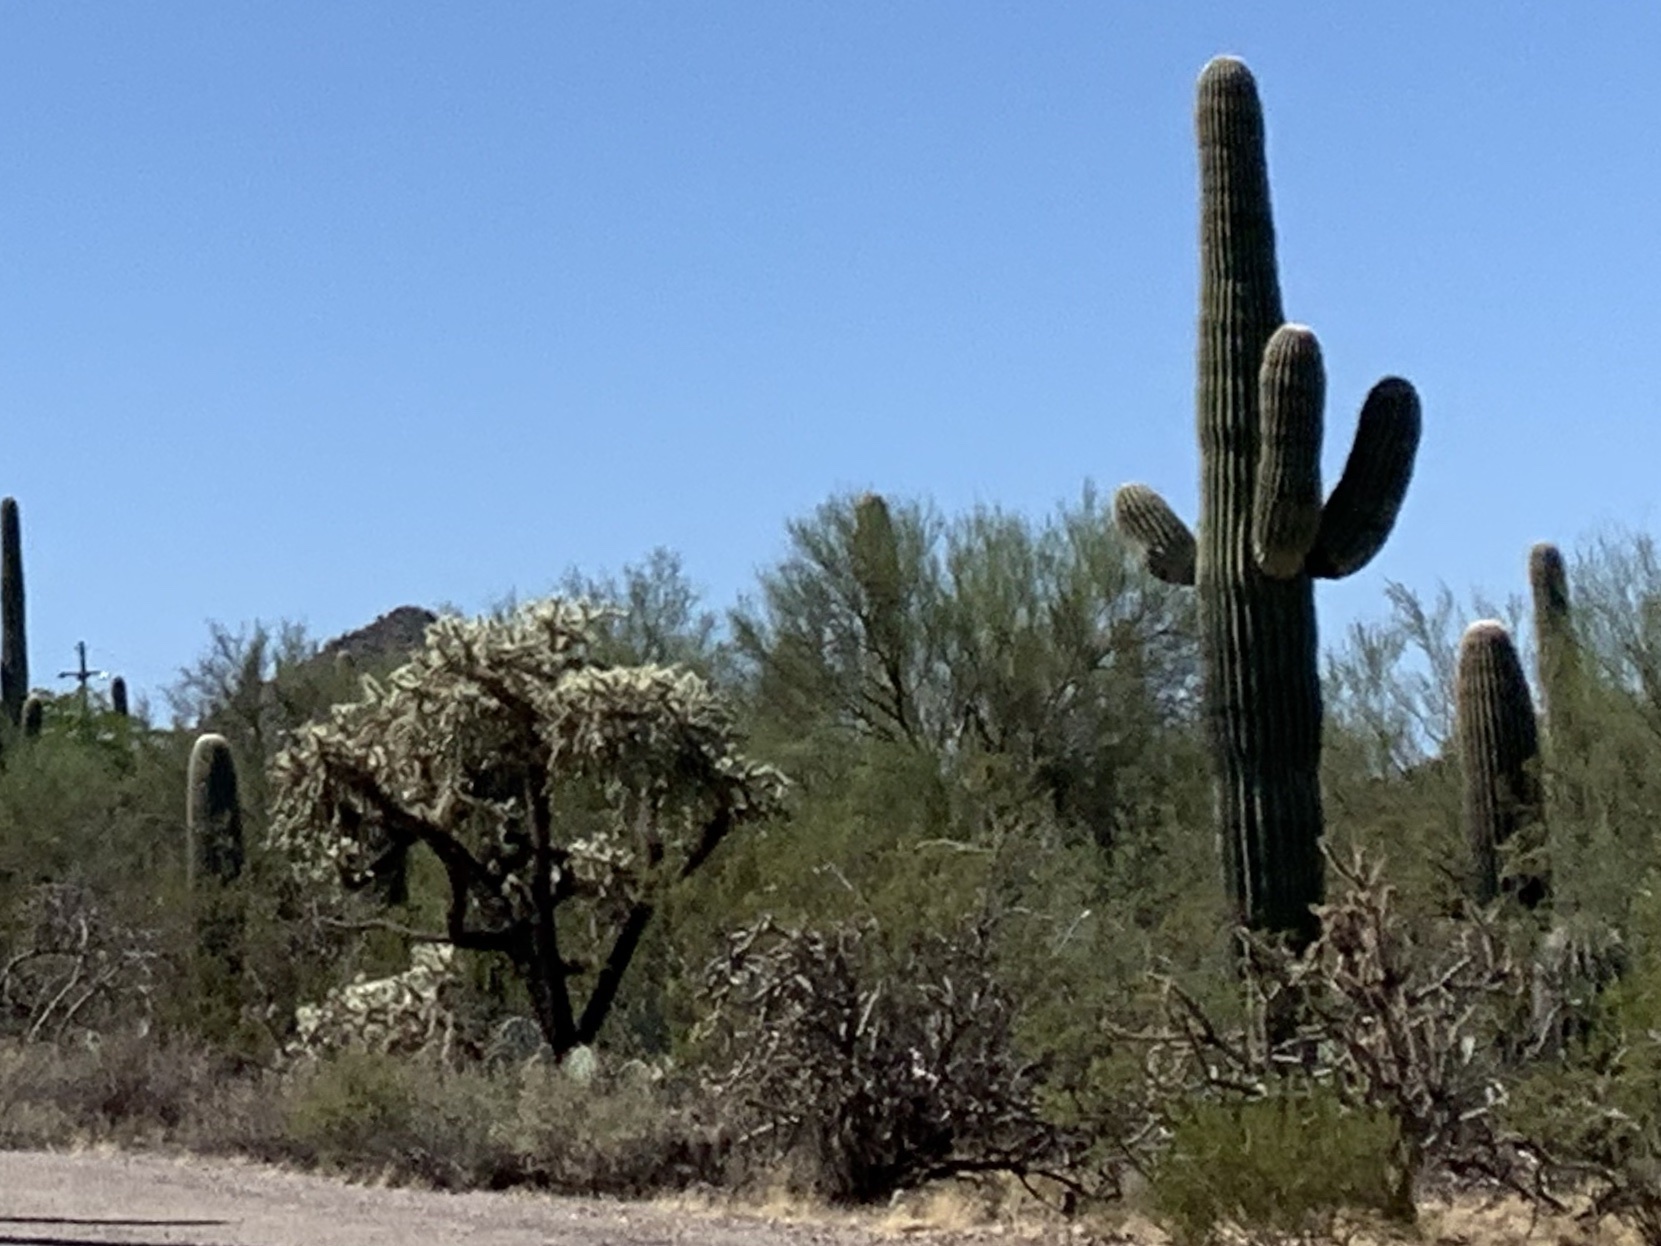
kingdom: Plantae
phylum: Tracheophyta
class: Magnoliopsida
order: Caryophyllales
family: Cactaceae
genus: Carnegiea
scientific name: Carnegiea gigantea
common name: Saguaro
